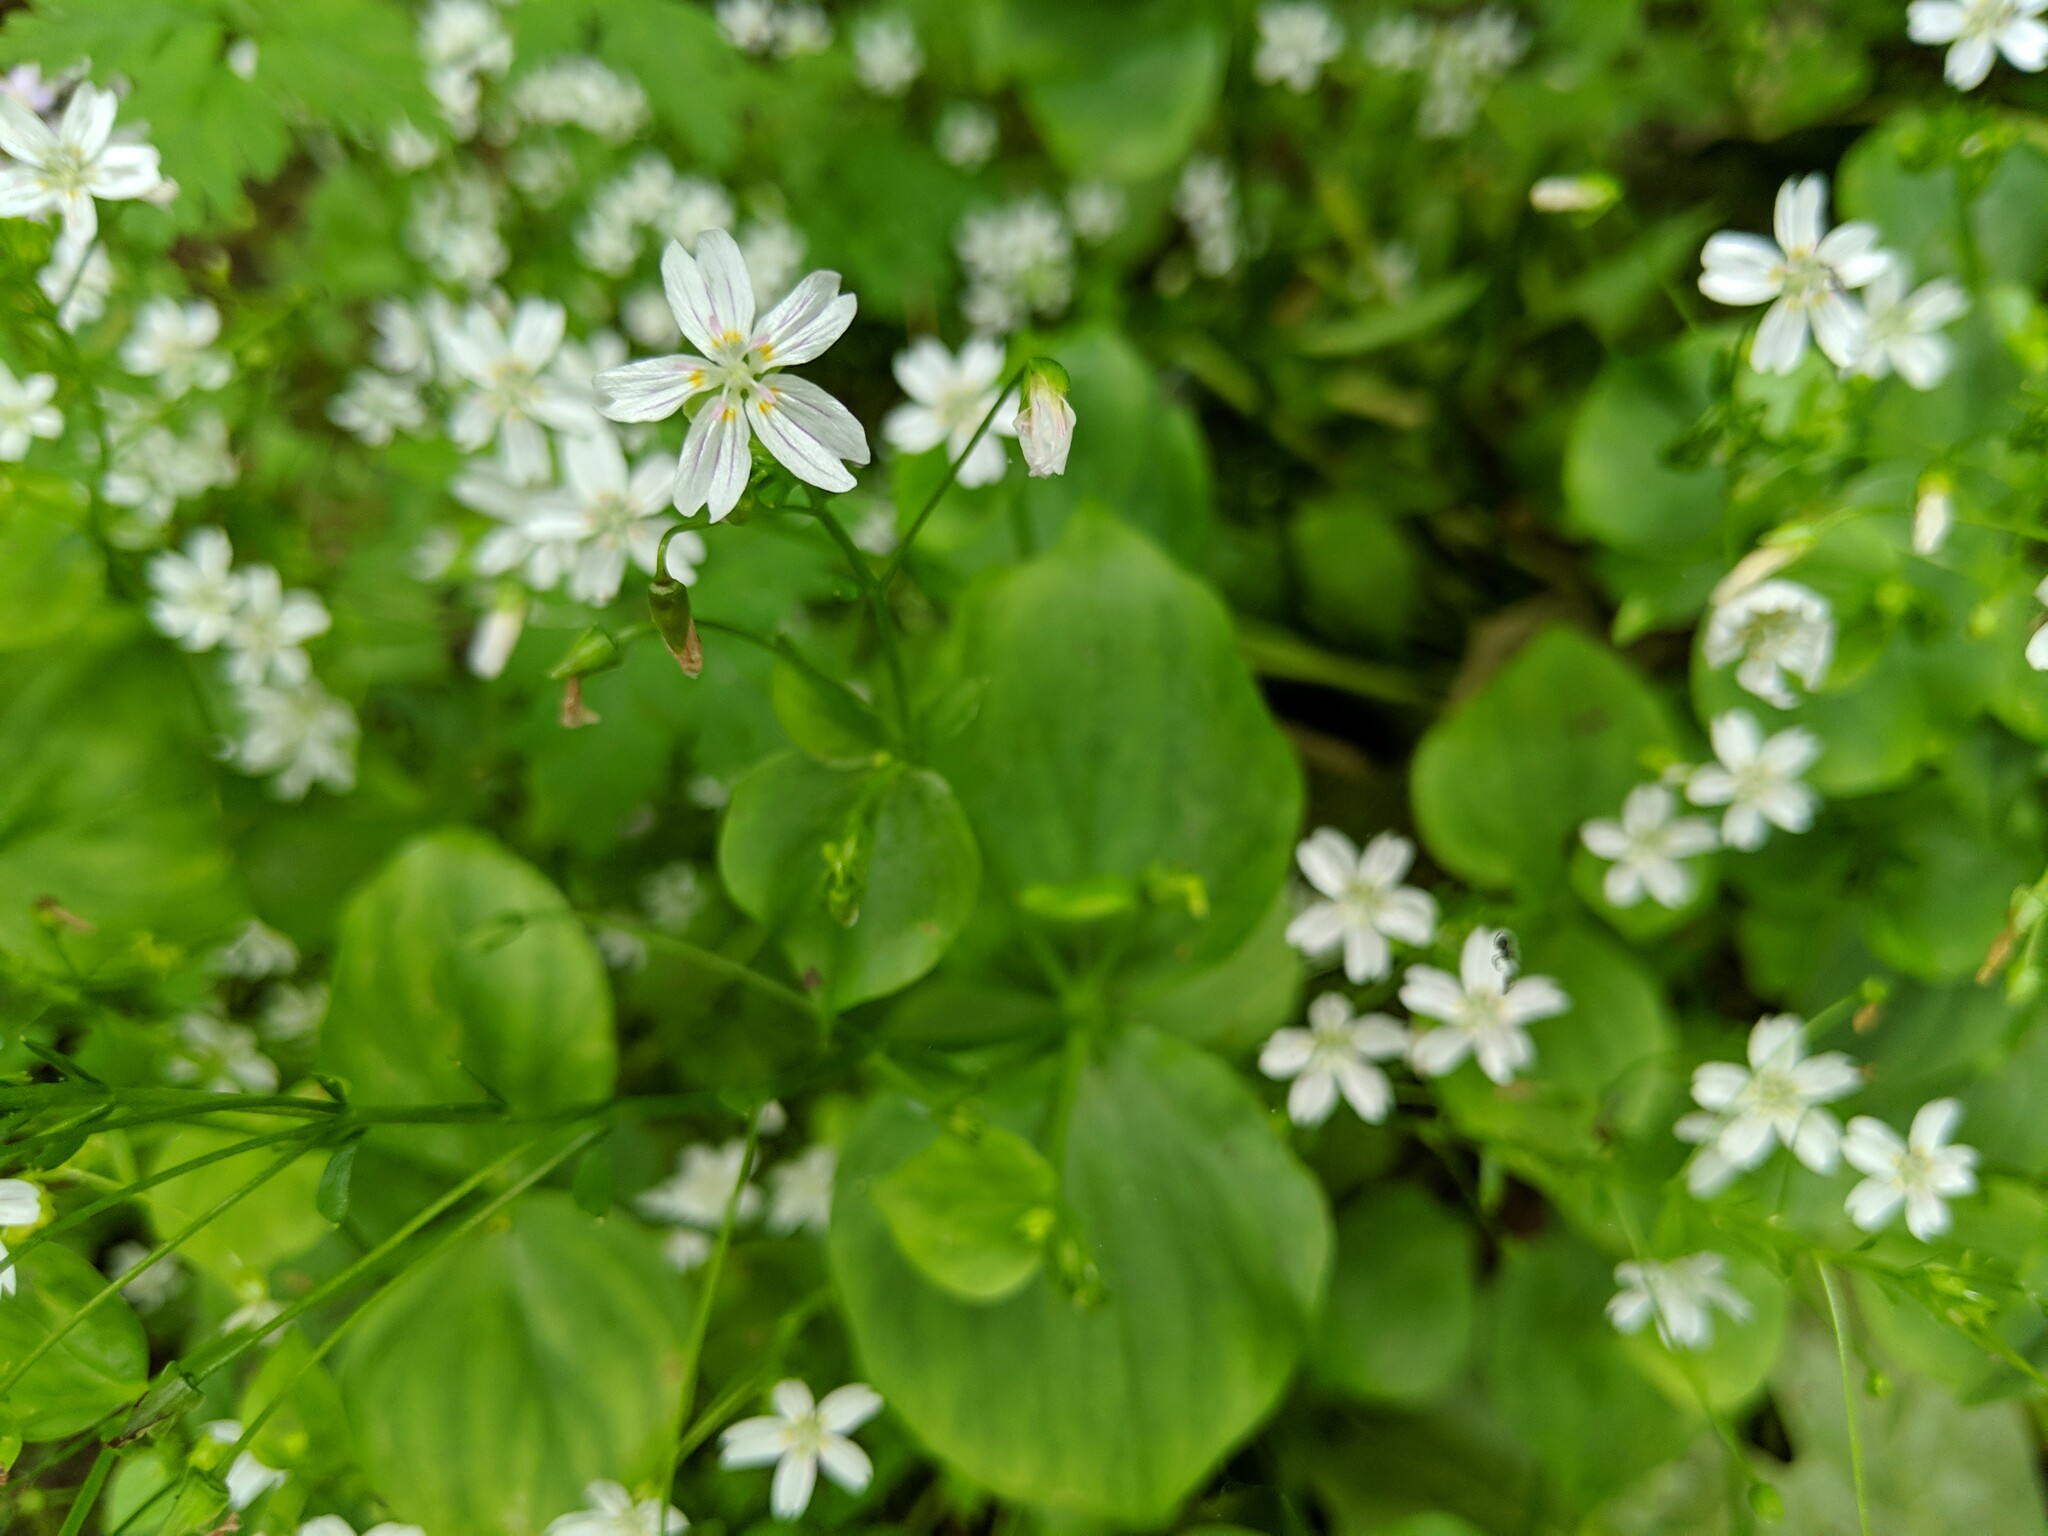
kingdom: Plantae
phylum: Tracheophyta
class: Magnoliopsida
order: Caryophyllales
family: Montiaceae
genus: Claytonia
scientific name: Claytonia sibirica
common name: Pink purslane
